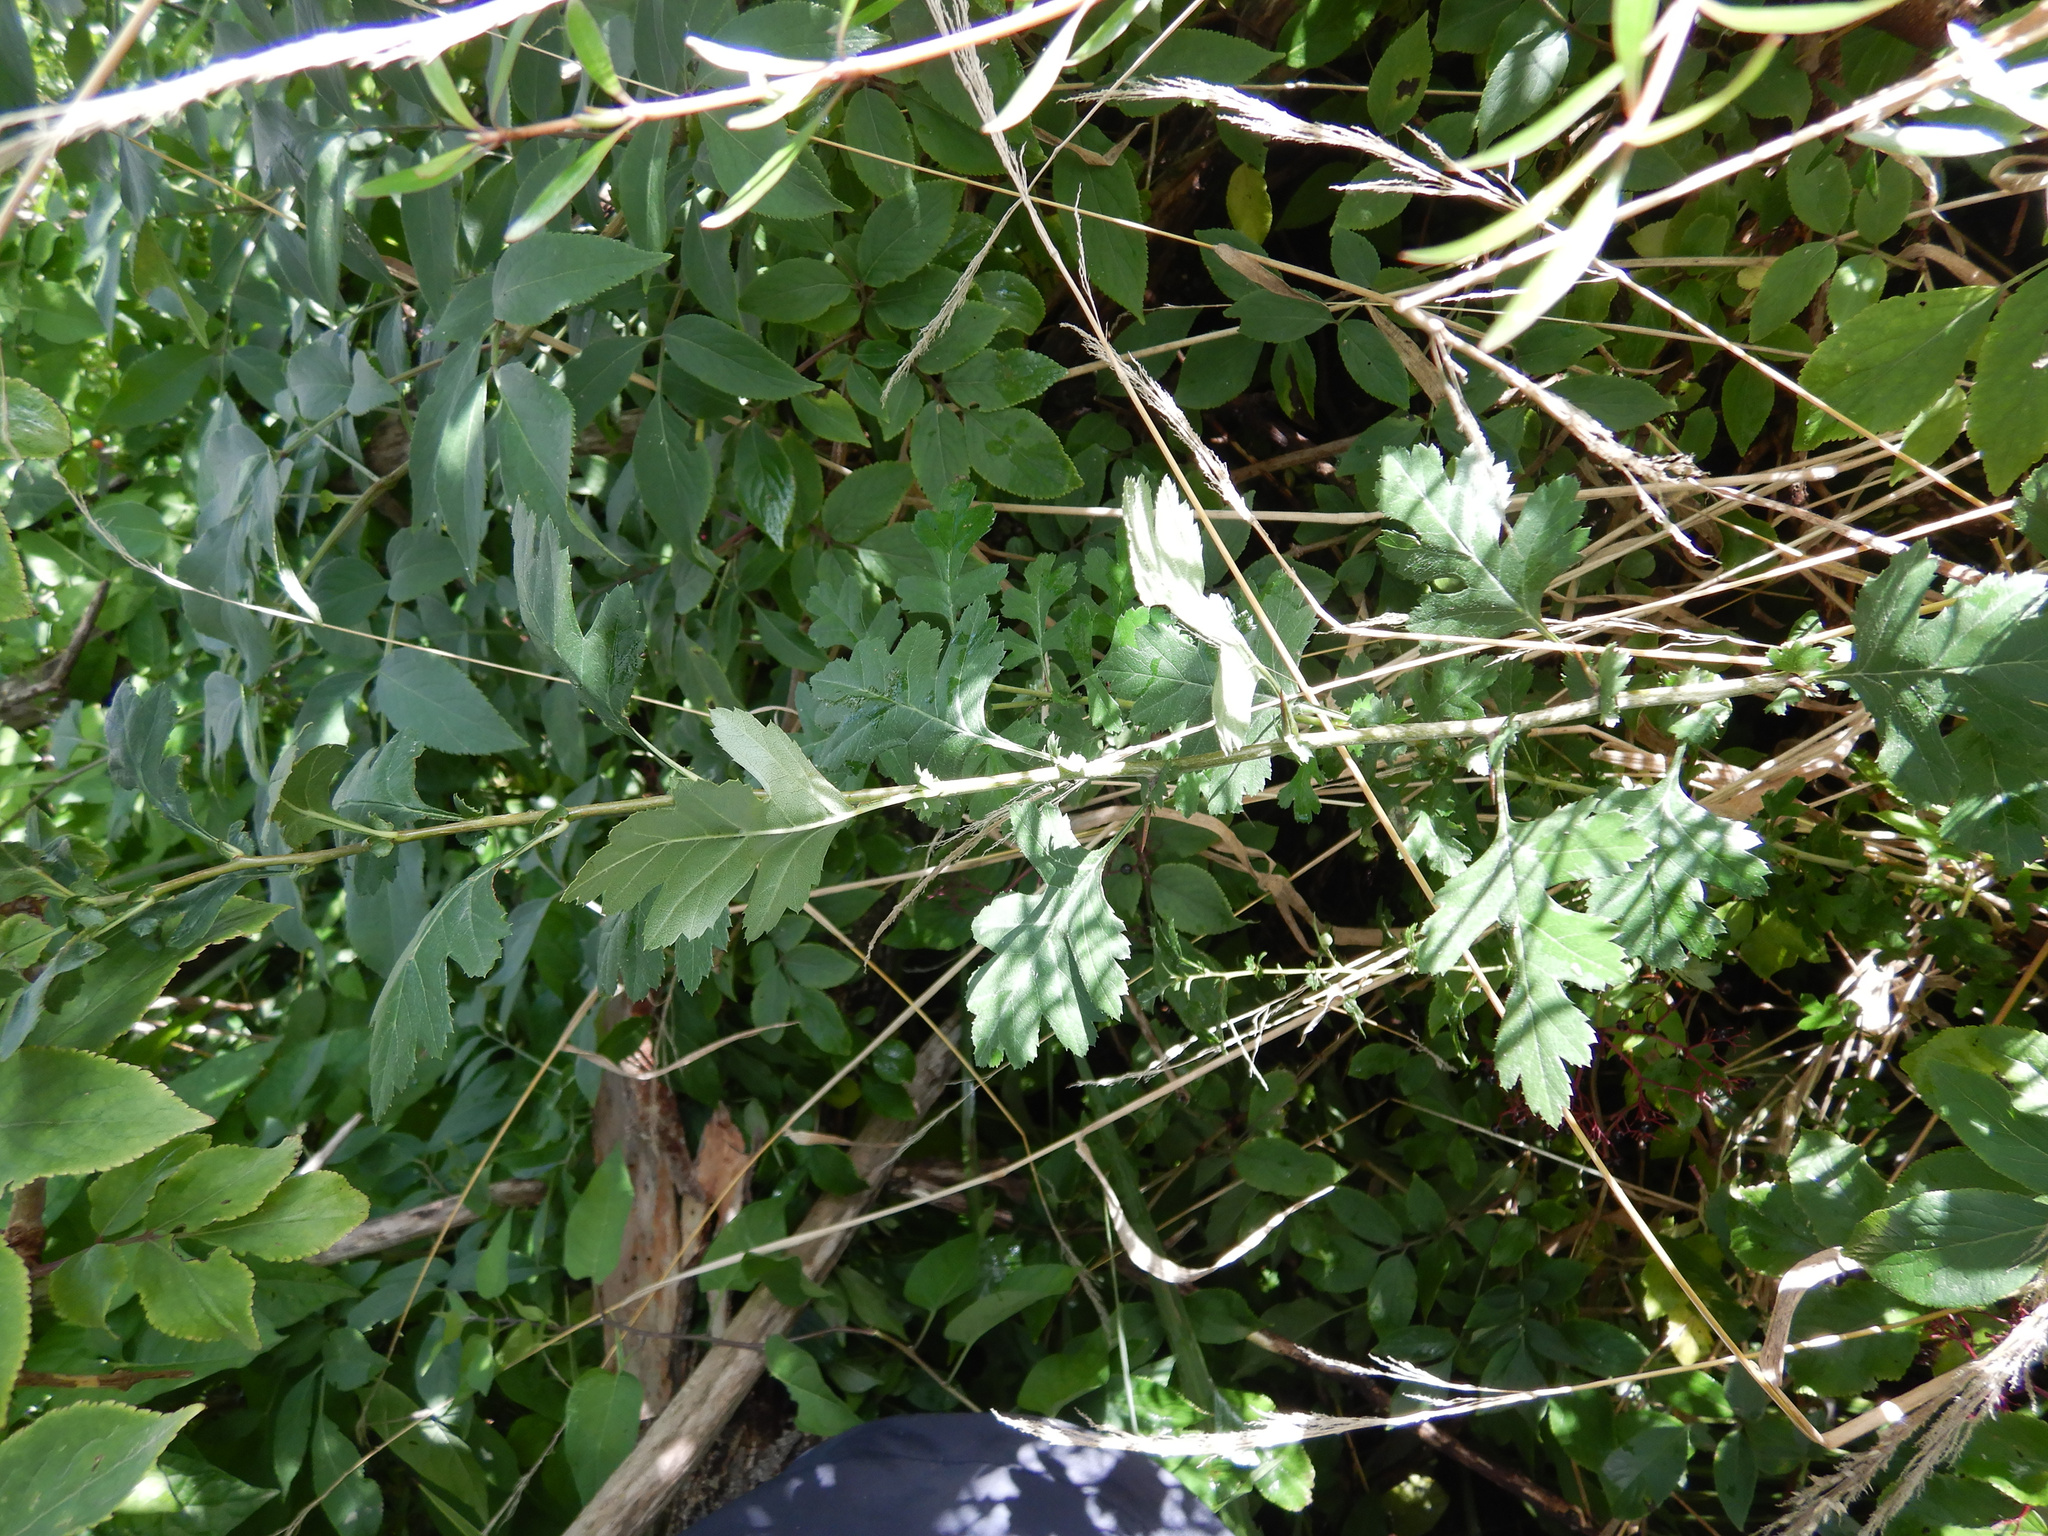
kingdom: Plantae
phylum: Tracheophyta
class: Magnoliopsida
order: Rosales
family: Rosaceae
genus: Crataegus
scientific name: Crataegus monogyna
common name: Hawthorn
